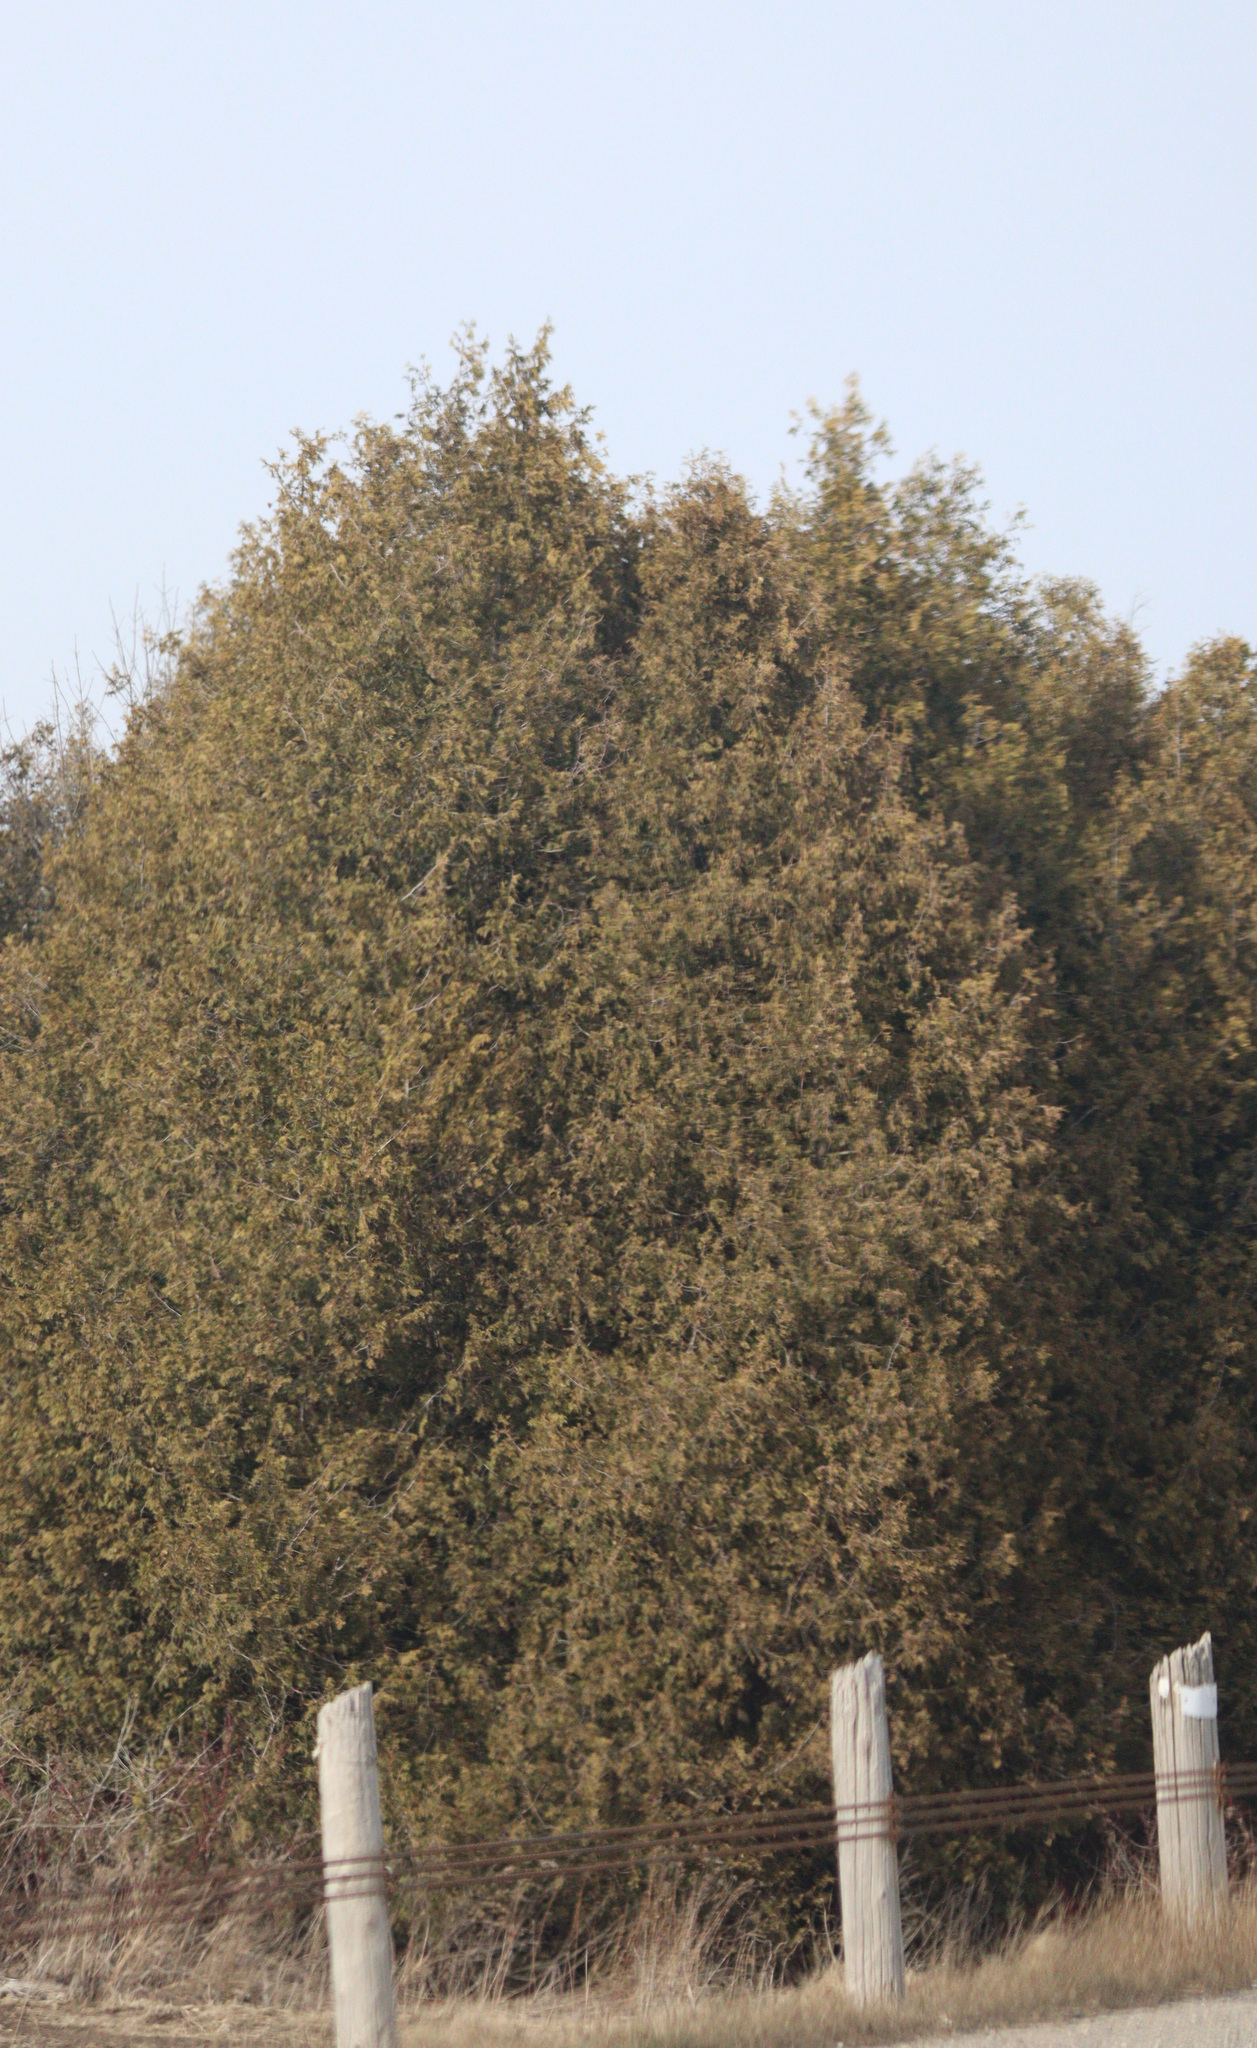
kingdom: Plantae
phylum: Tracheophyta
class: Pinopsida
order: Pinales
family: Cupressaceae
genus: Thuja
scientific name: Thuja occidentalis
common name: Northern white-cedar
